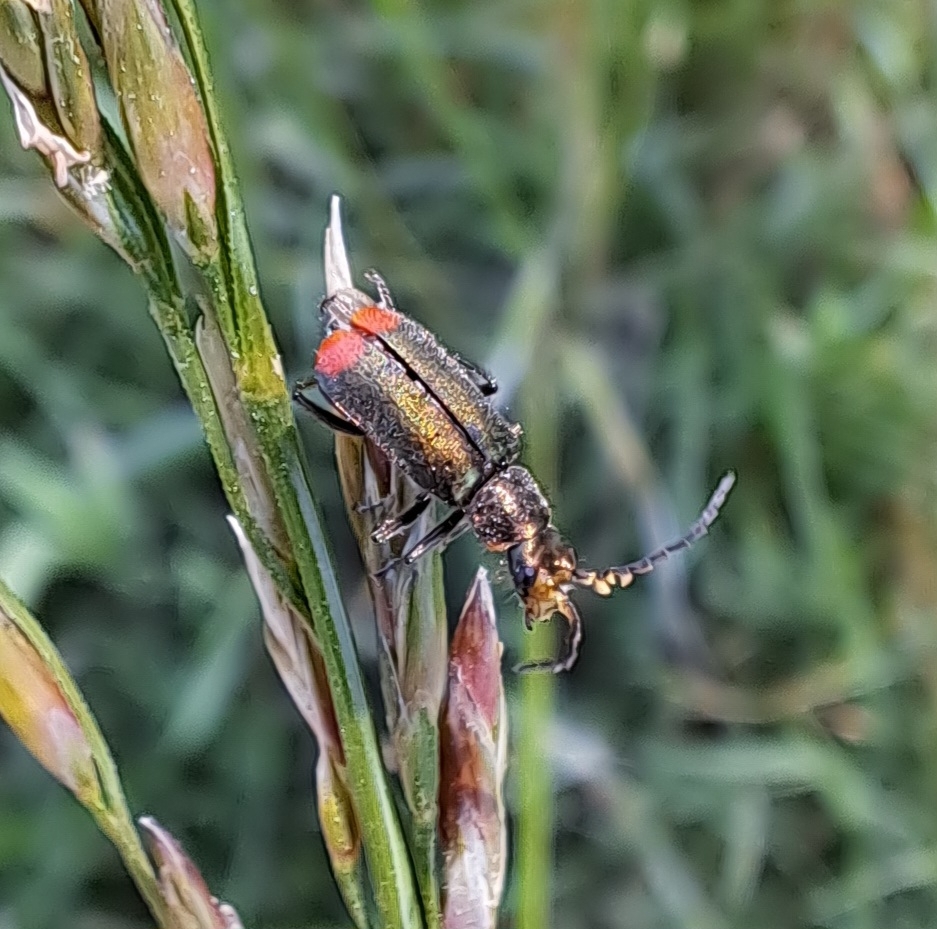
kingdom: Animalia
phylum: Arthropoda
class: Insecta
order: Coleoptera
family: Melyridae
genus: Malachius
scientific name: Malachius bipustulatus
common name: Malachite beetle
